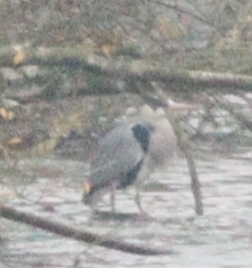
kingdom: Animalia
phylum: Chordata
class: Aves
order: Pelecaniformes
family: Ardeidae
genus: Ardea
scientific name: Ardea cinerea
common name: Grey heron
